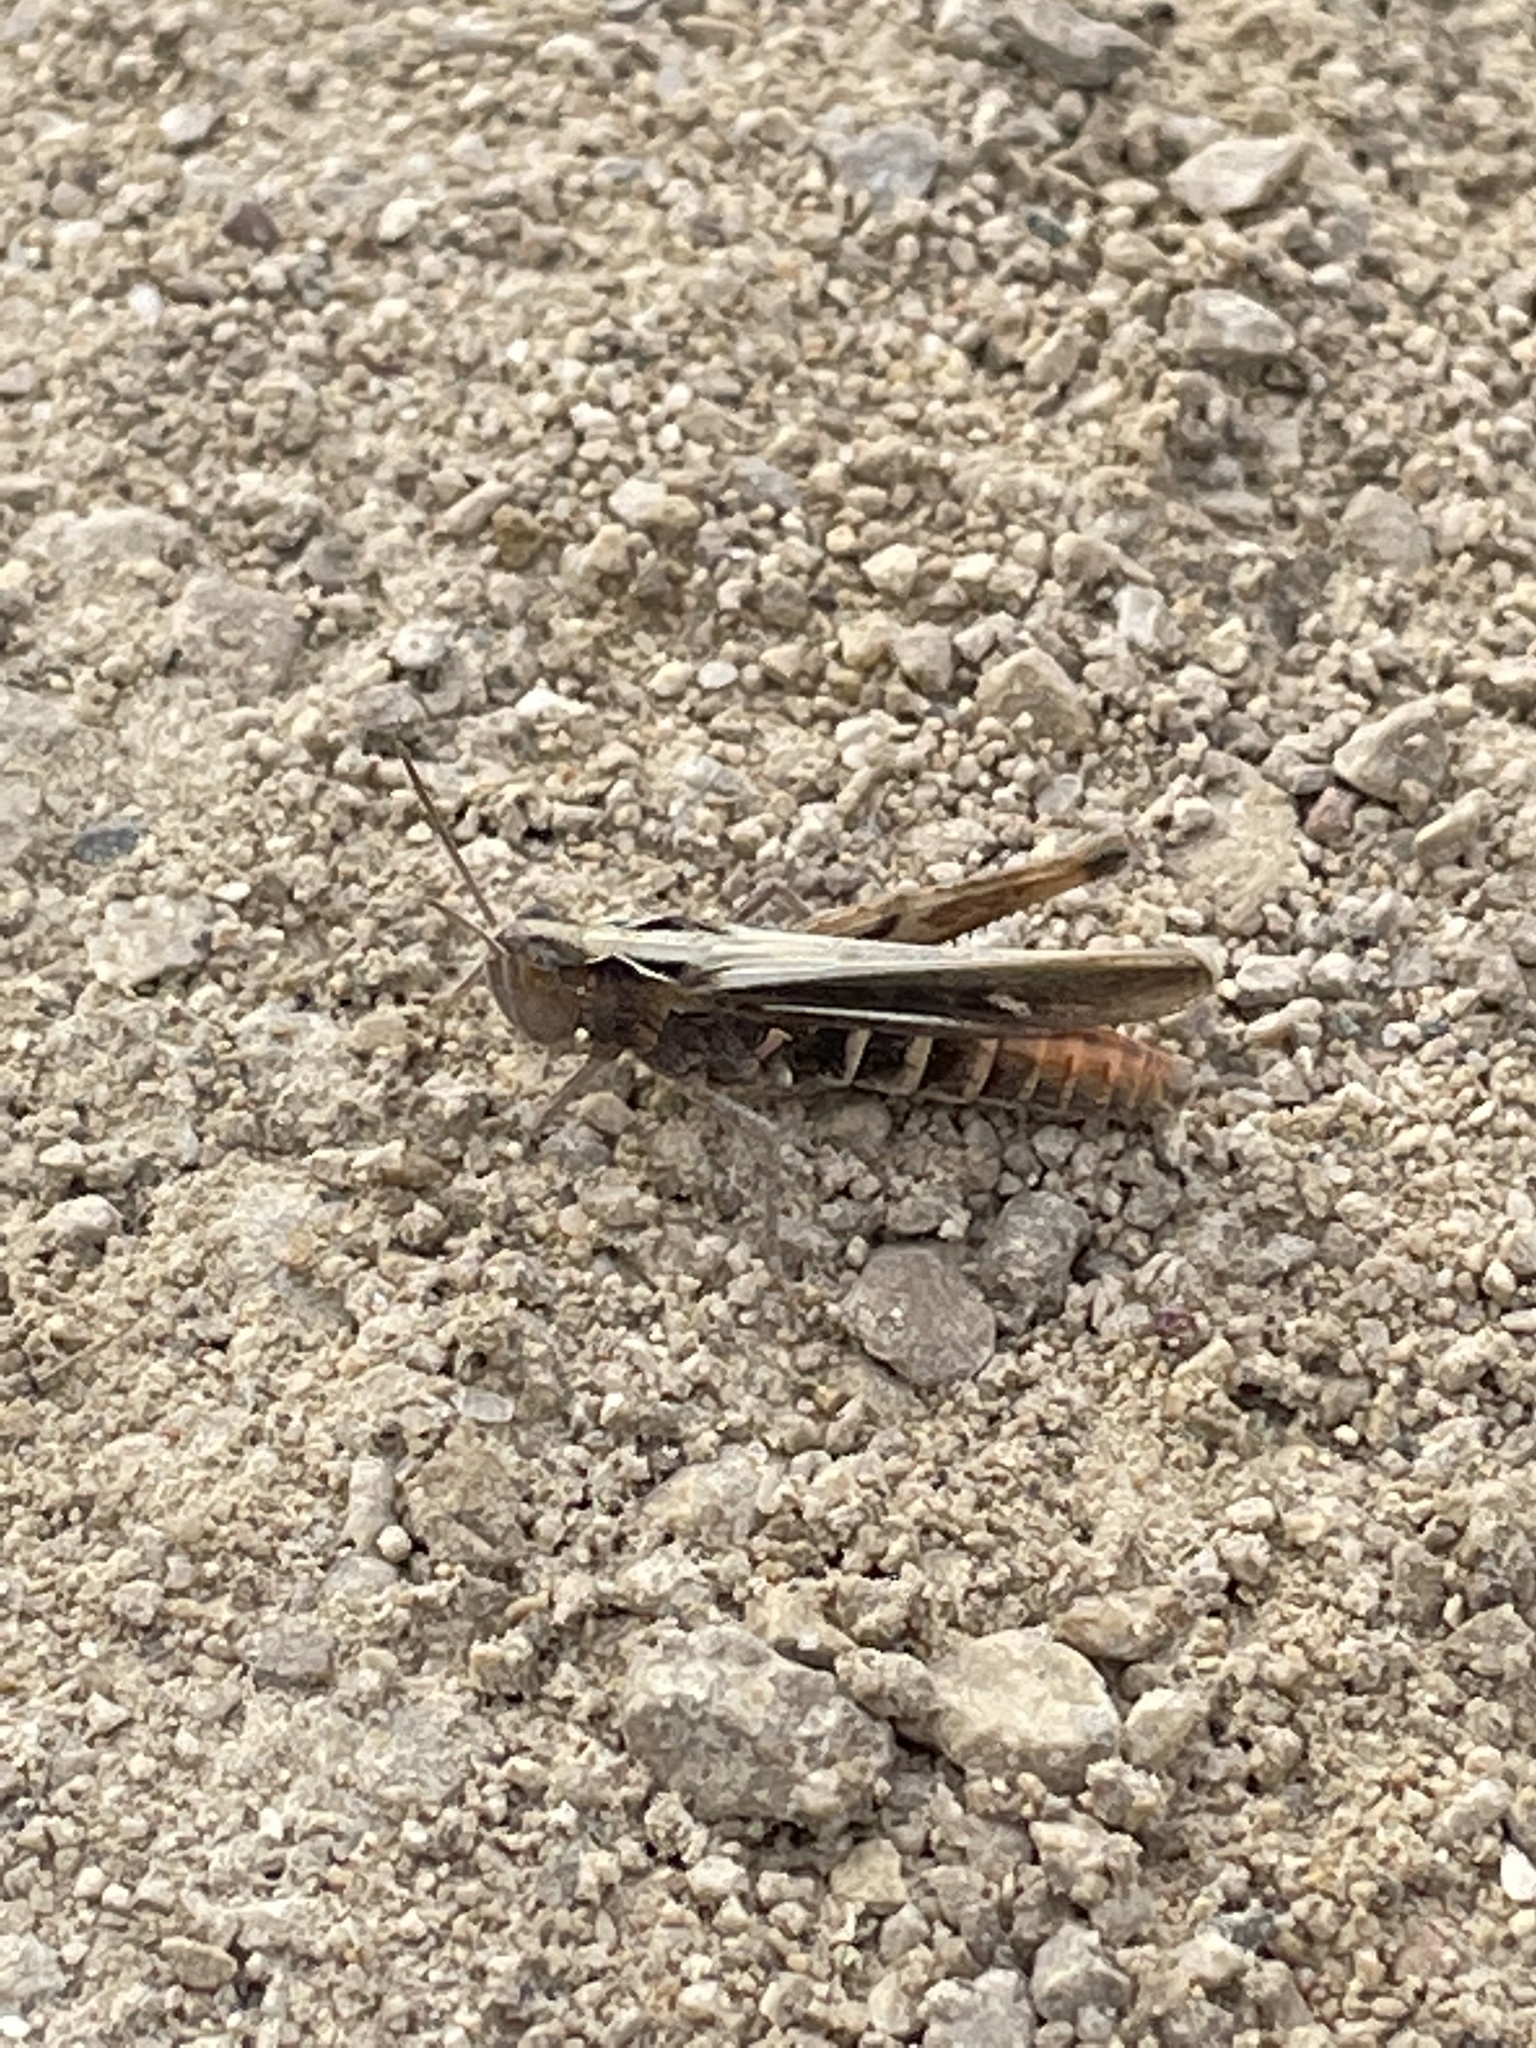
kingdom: Animalia
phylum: Arthropoda
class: Insecta
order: Orthoptera
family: Acrididae
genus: Chorthippus
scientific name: Chorthippus brunneus
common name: Field grasshopper
